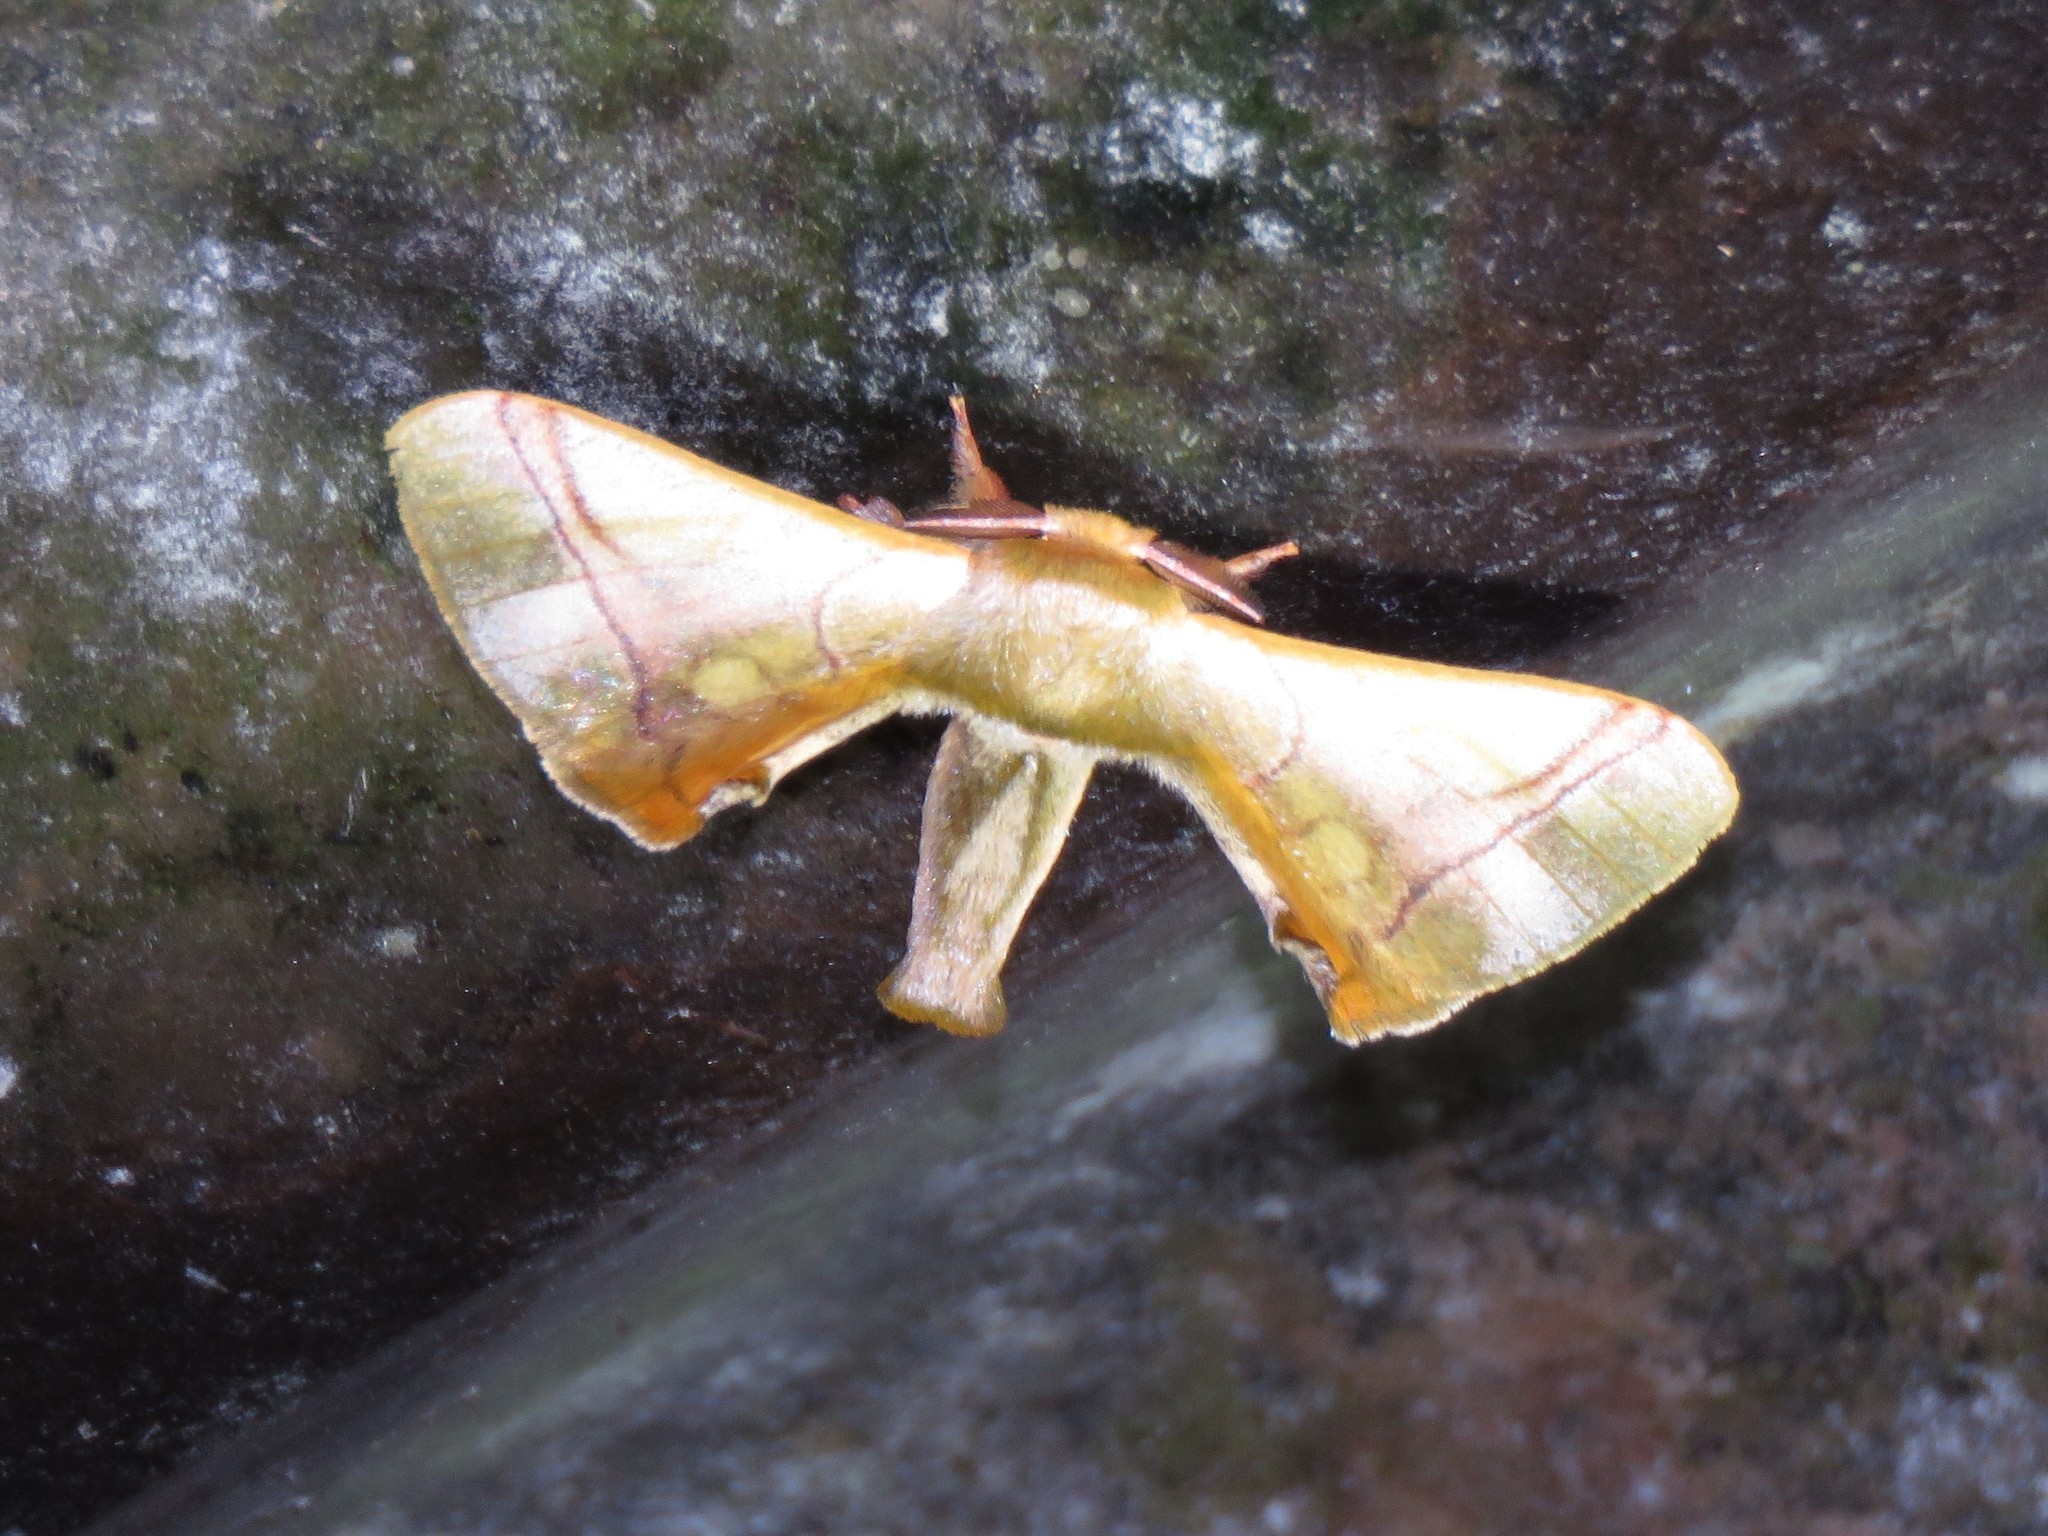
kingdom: Animalia
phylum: Arthropoda
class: Insecta
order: Lepidoptera
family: Bombycidae
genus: Epia
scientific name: Epia casnonia
